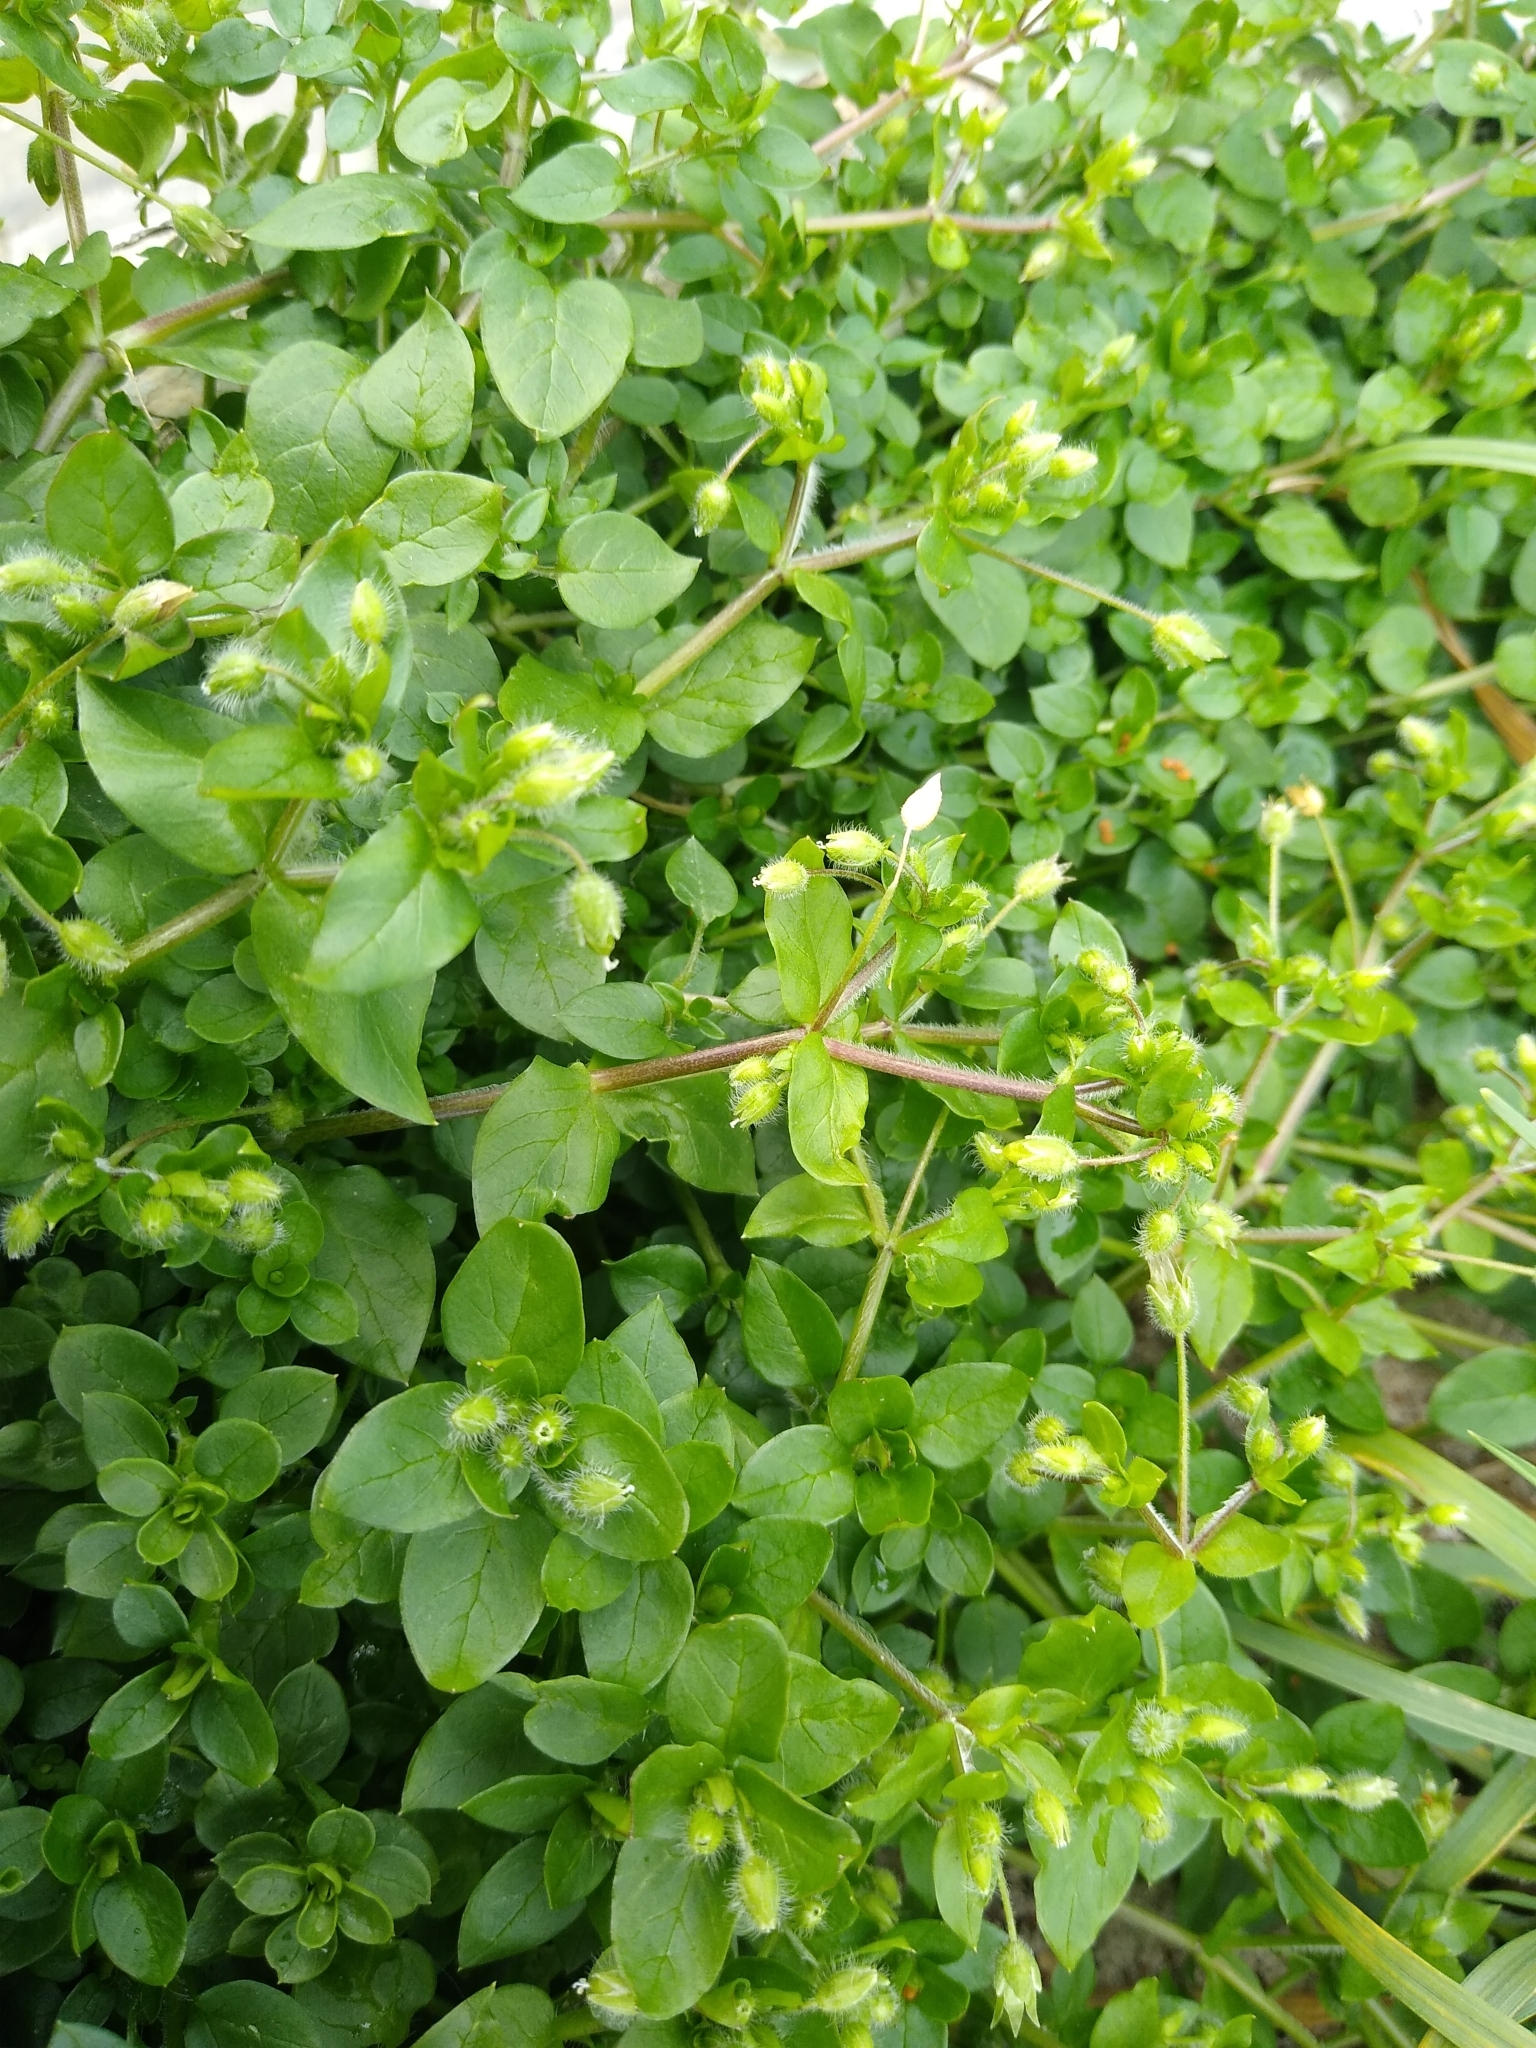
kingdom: Plantae
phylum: Tracheophyta
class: Magnoliopsida
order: Caryophyllales
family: Caryophyllaceae
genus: Stellaria
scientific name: Stellaria media
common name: Common chickweed
